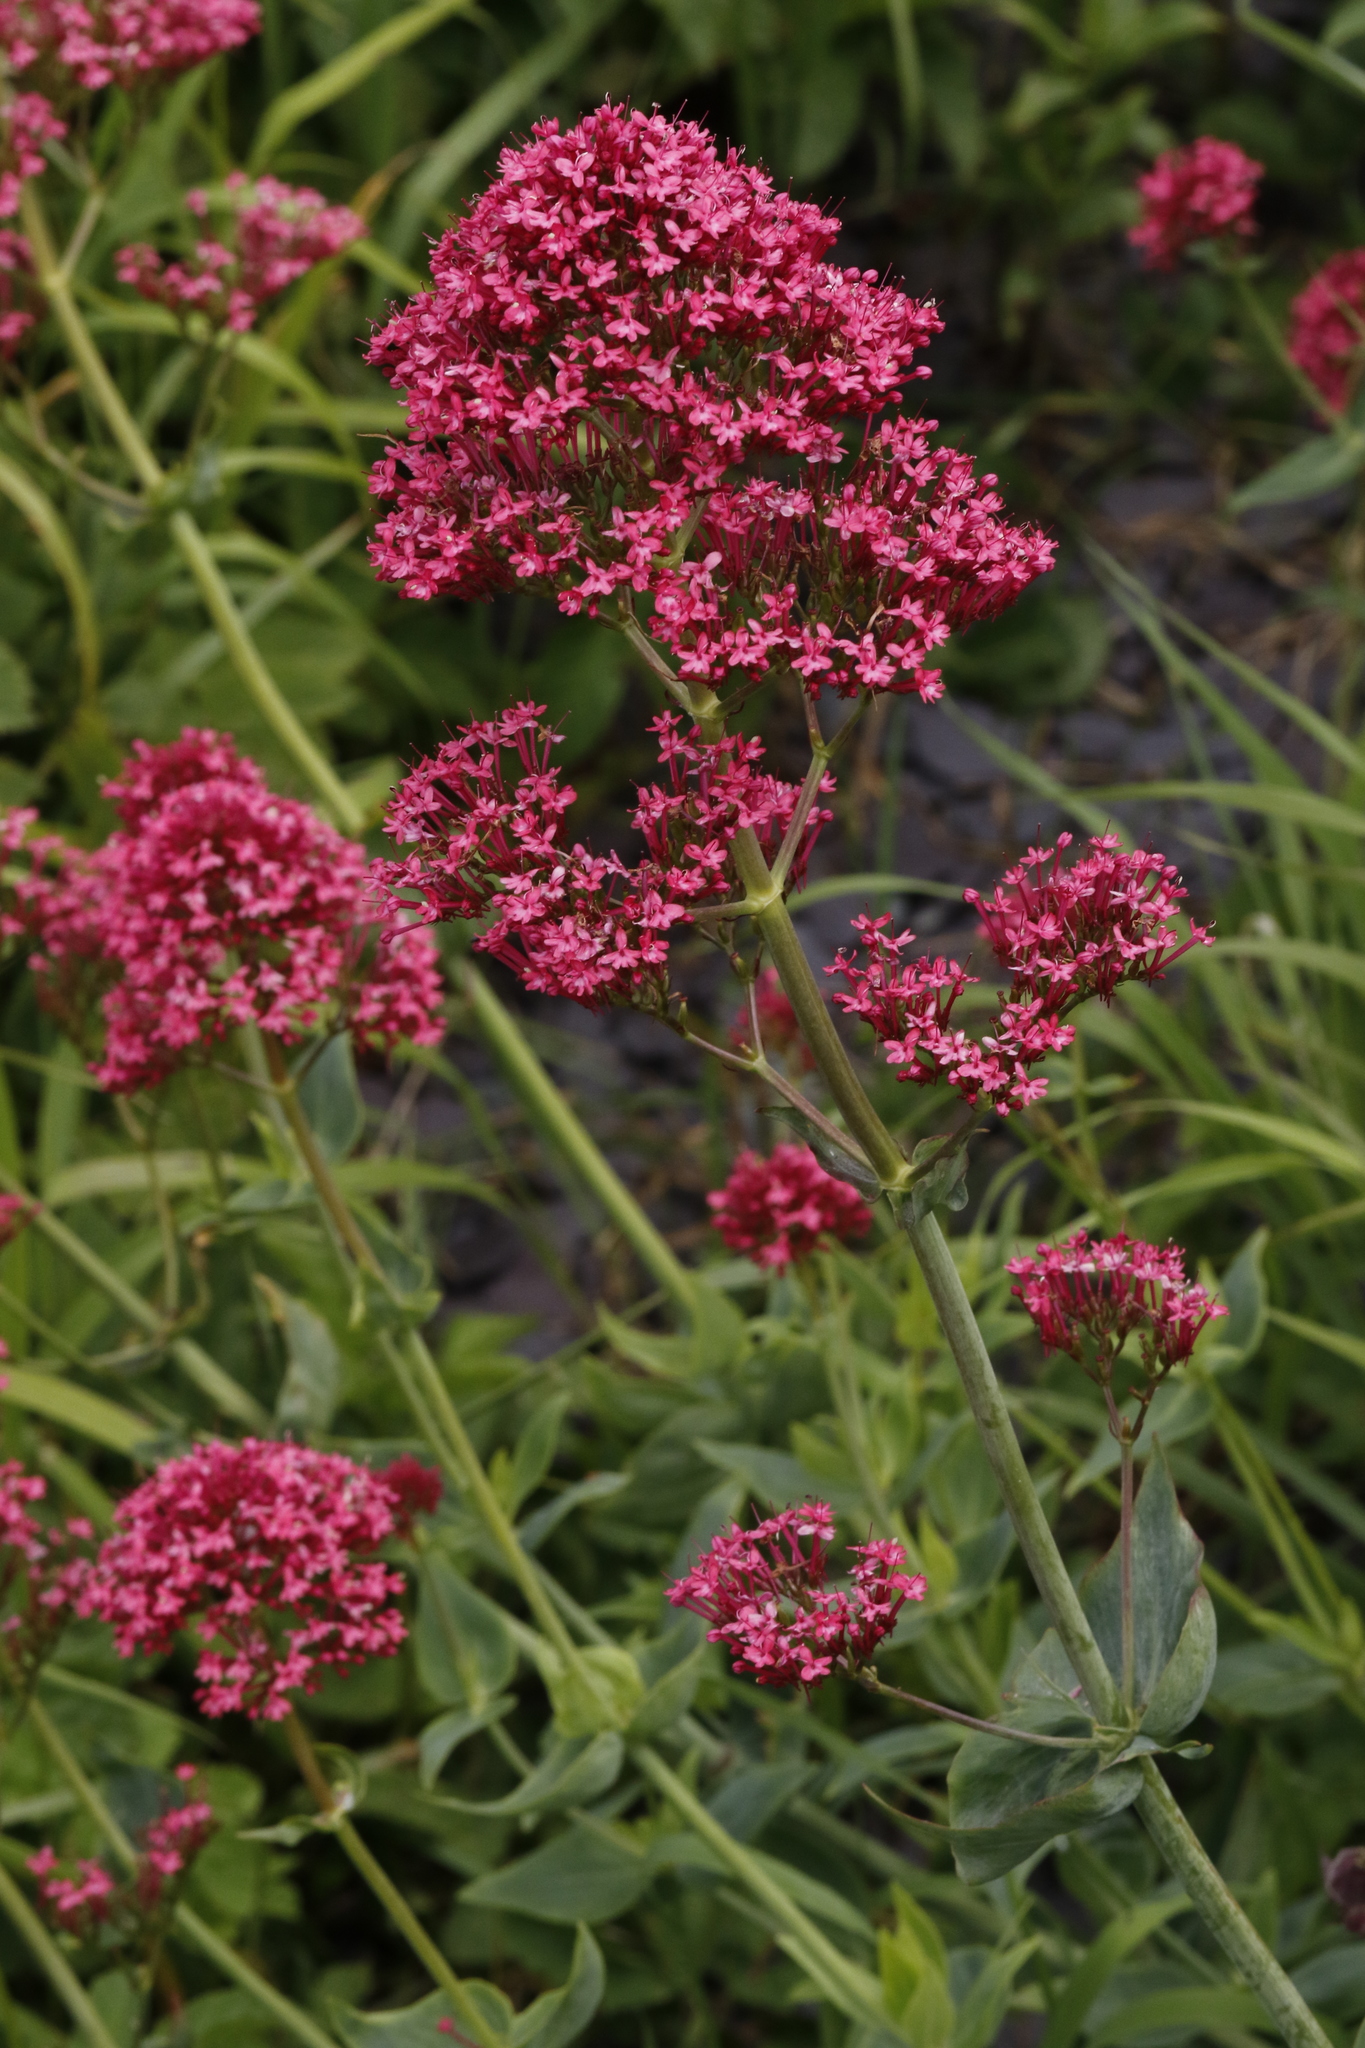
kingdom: Plantae
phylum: Tracheophyta
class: Magnoliopsida
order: Dipsacales
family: Caprifoliaceae
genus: Centranthus
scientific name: Centranthus ruber
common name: Red valerian
